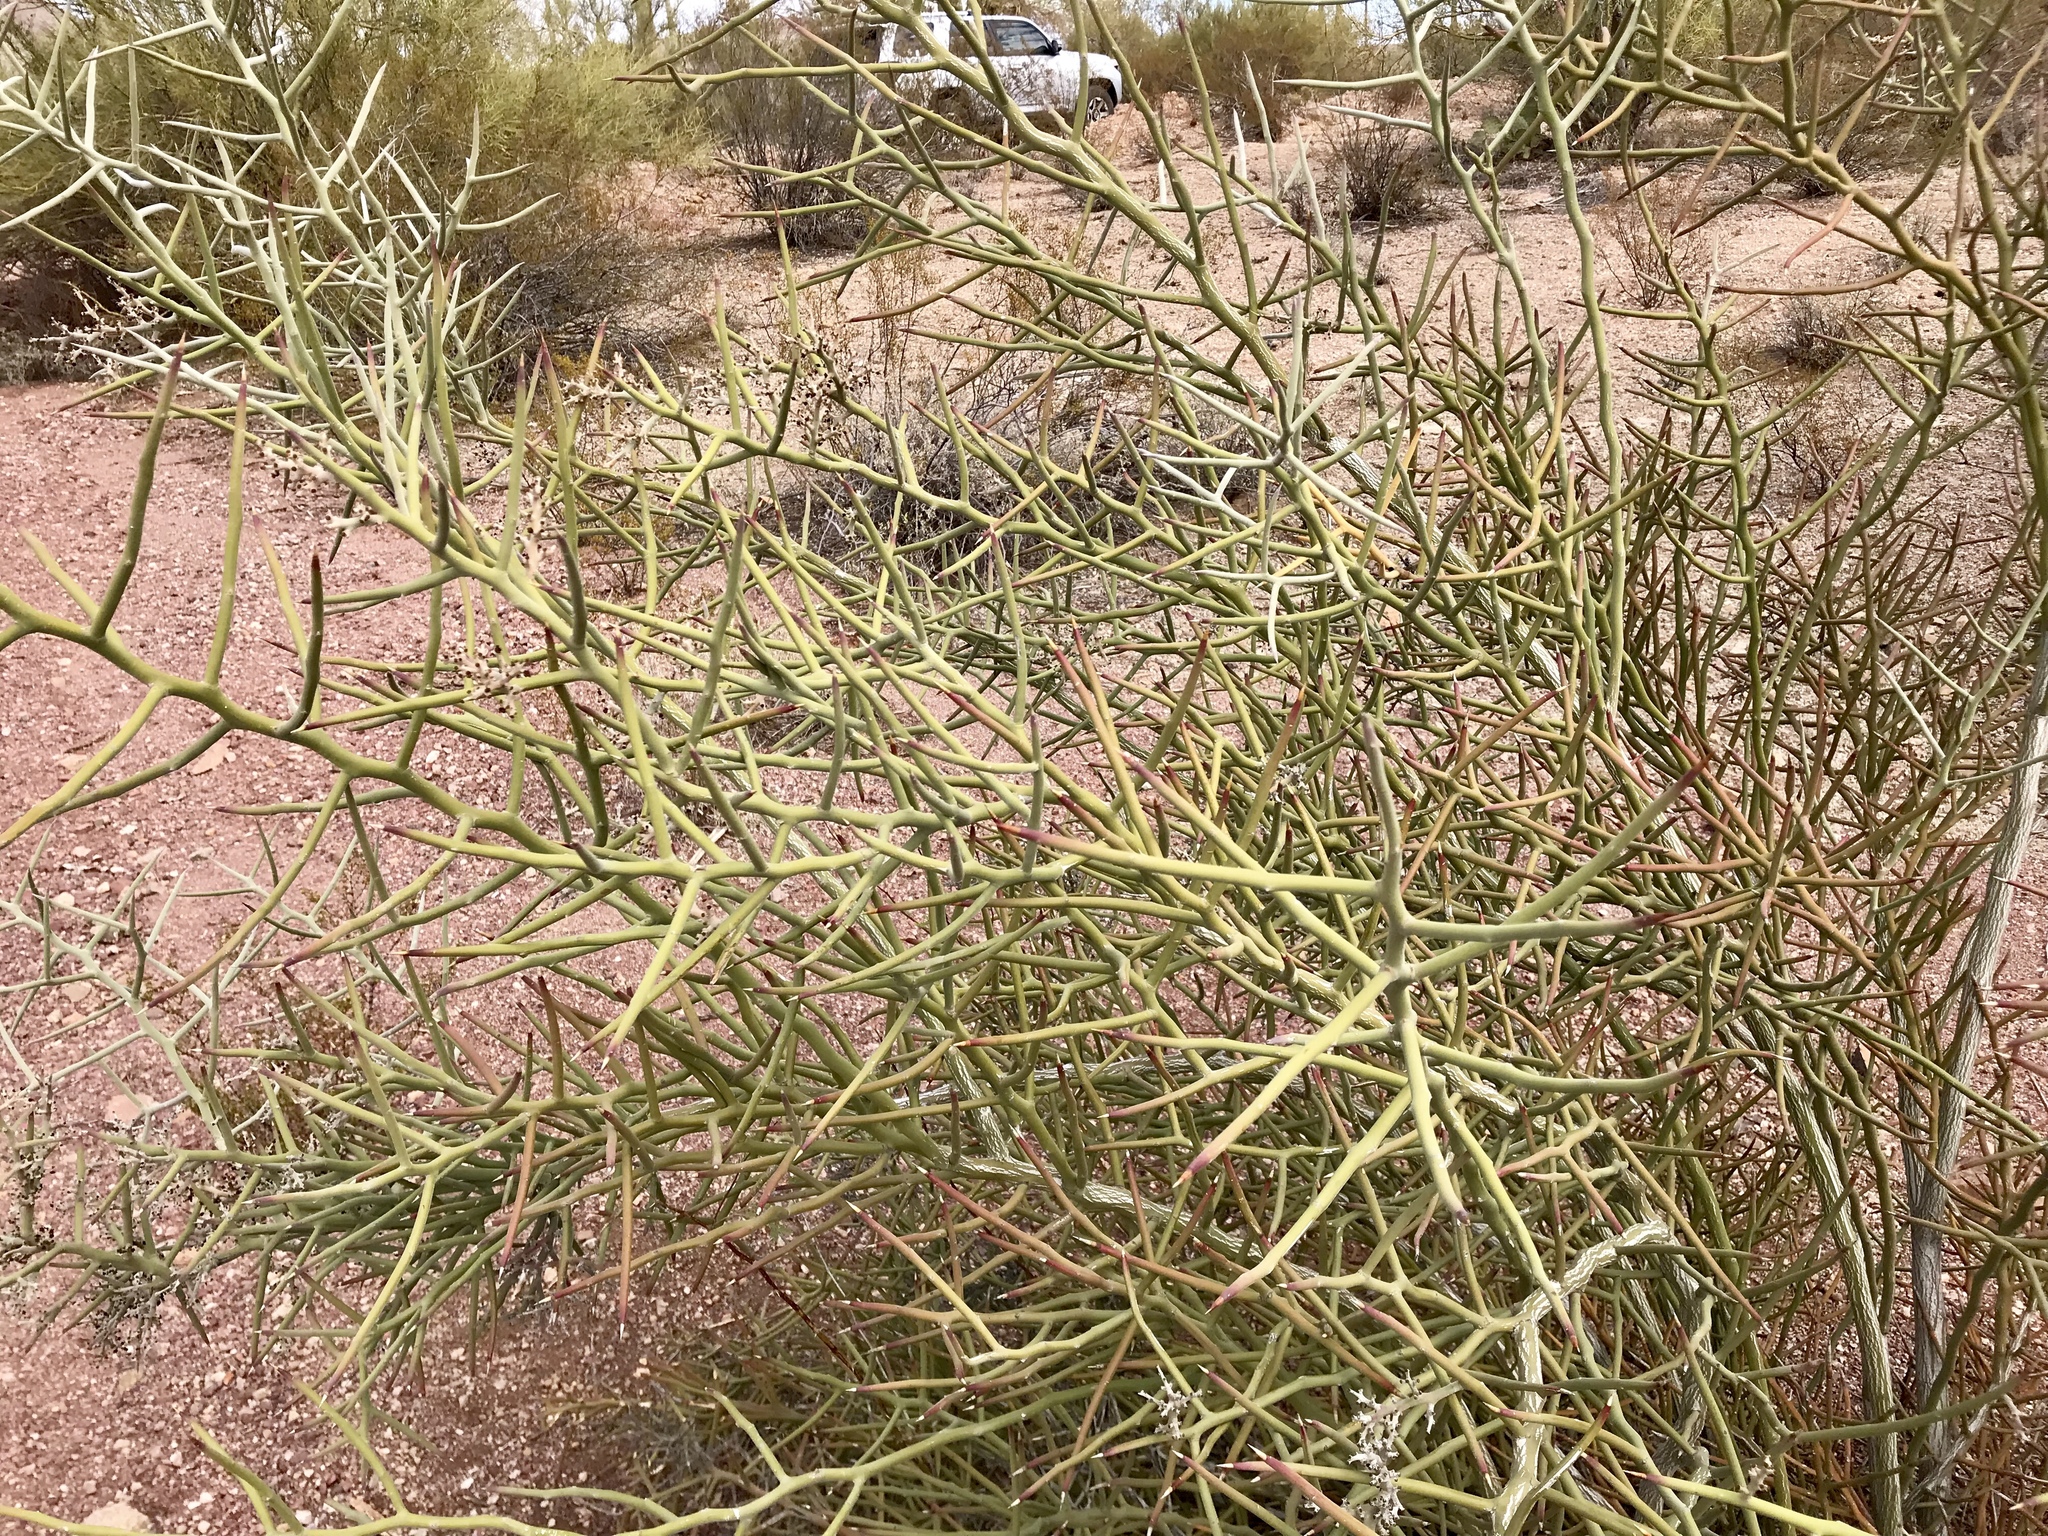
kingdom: Plantae
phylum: Tracheophyta
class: Magnoliopsida
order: Sapindales
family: Simaroubaceae
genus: Holacantha
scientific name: Holacantha emoryi
